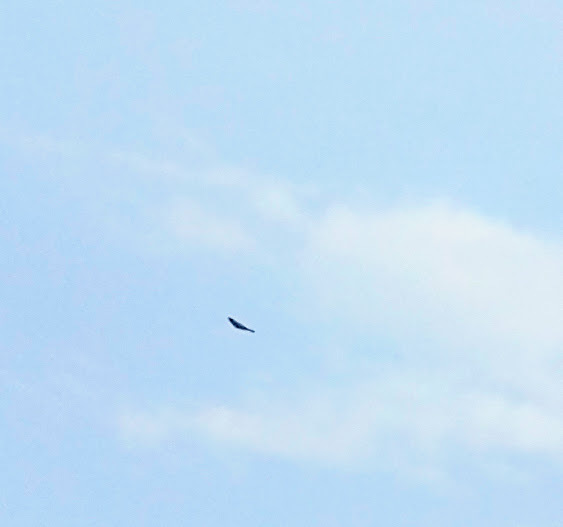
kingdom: Animalia
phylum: Chordata
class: Aves
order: Passeriformes
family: Muscicapidae
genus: Saxicola
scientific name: Saxicola caprata
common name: Pied bush chat
